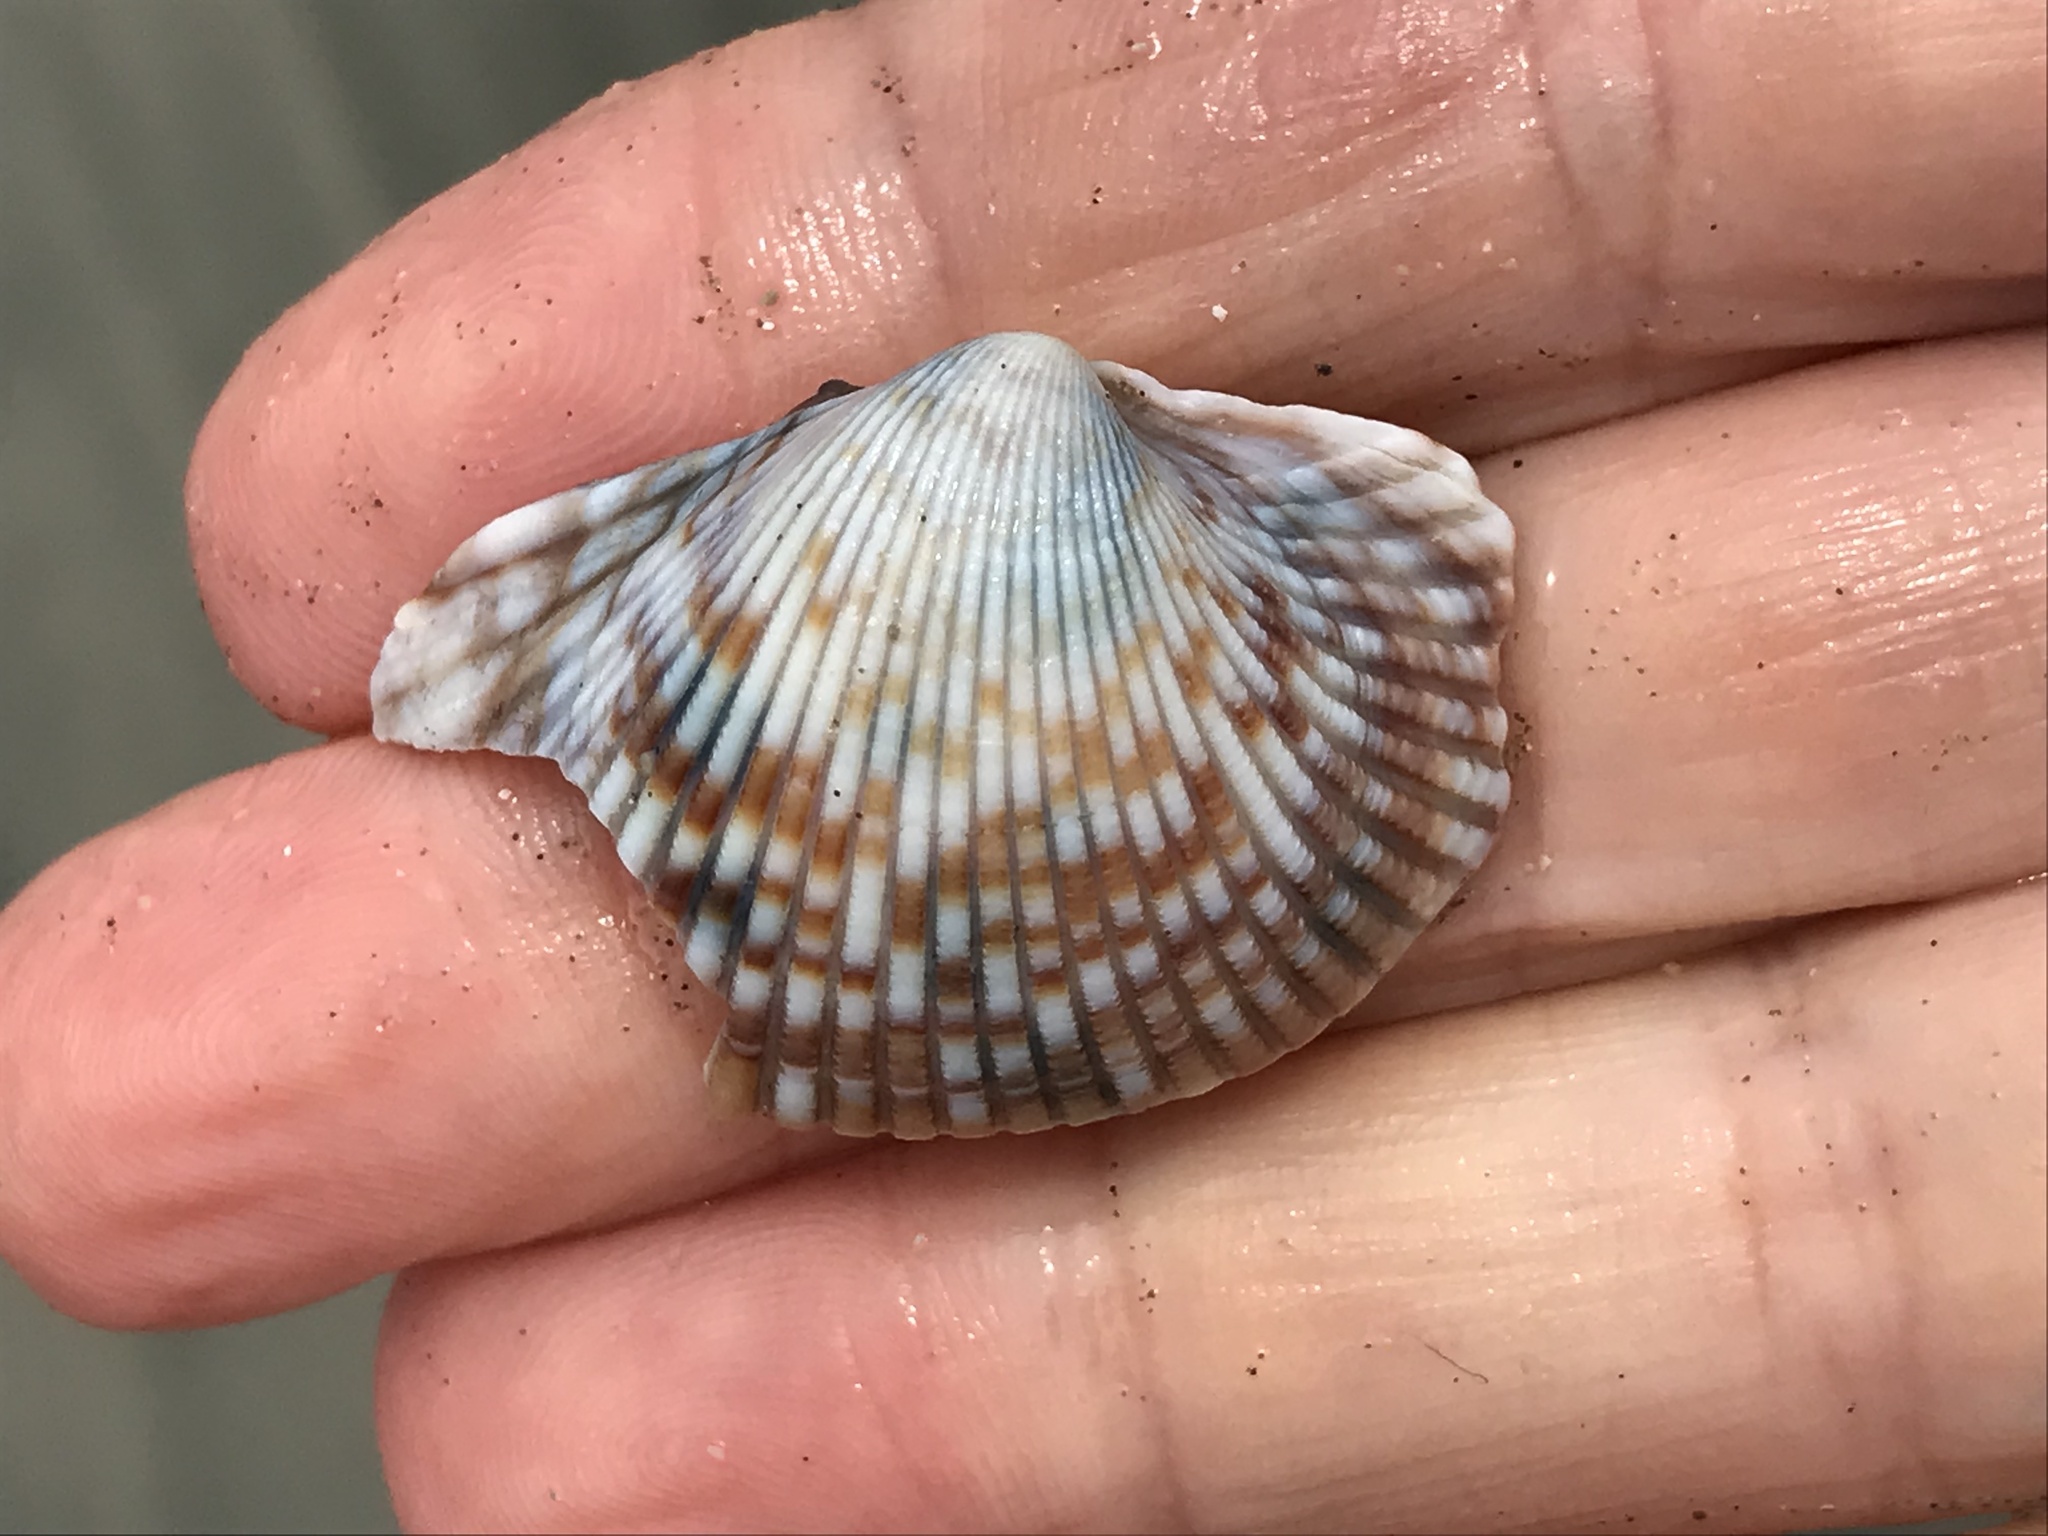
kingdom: Animalia
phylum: Mollusca
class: Bivalvia
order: Cardiida
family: Cardiidae
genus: Clinocardium
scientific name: Clinocardium nuttallii
